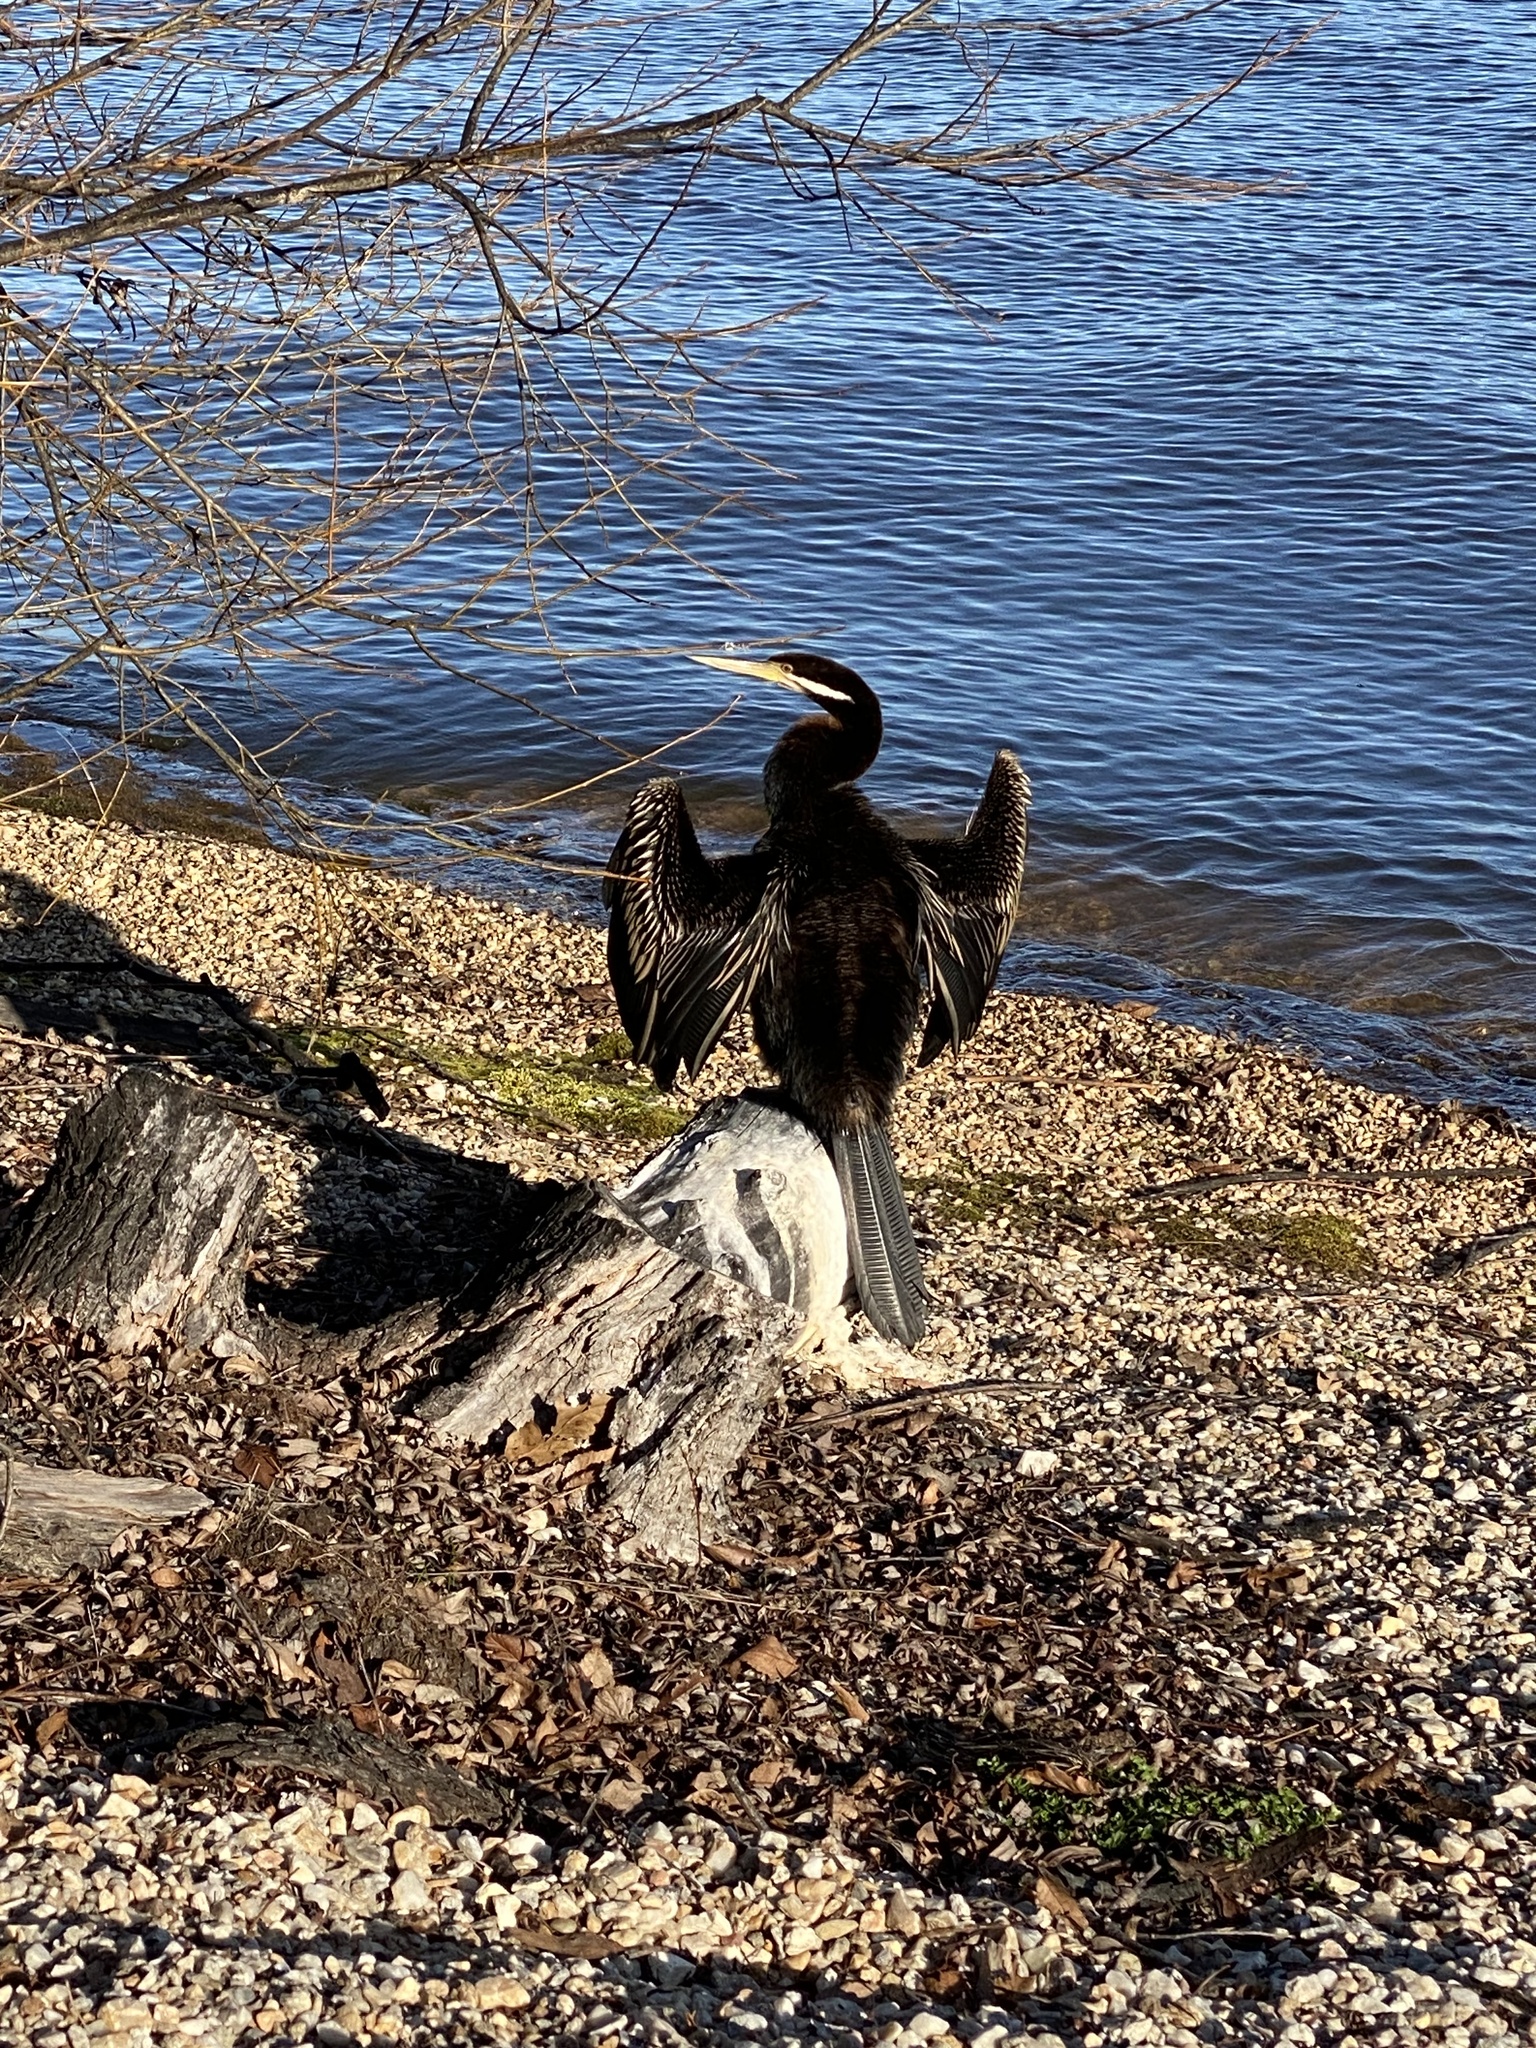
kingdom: Animalia
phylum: Chordata
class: Aves
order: Suliformes
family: Anhingidae
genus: Anhinga
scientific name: Anhinga novaehollandiae
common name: Australasian darter
